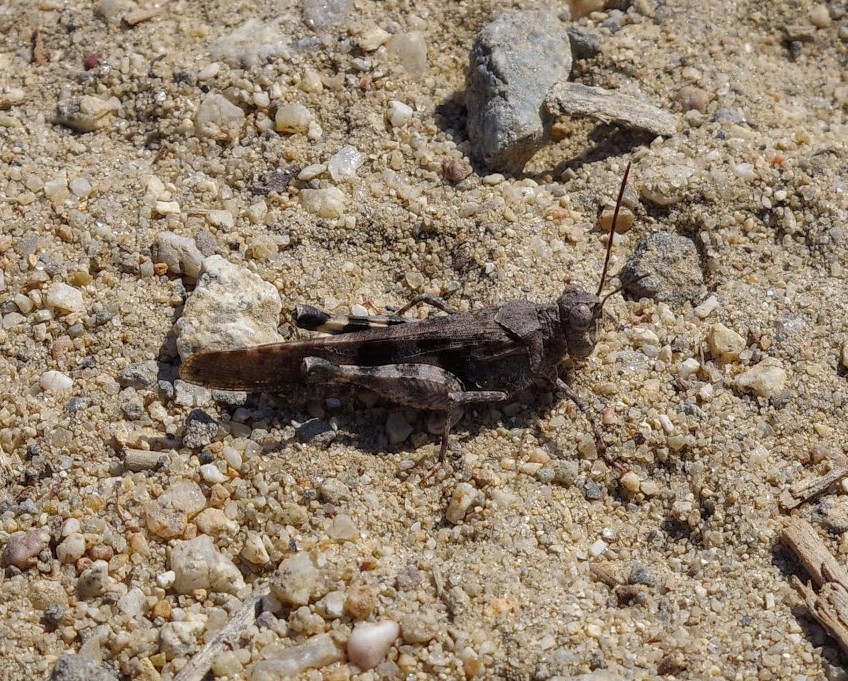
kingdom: Animalia
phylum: Arthropoda
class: Insecta
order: Orthoptera
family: Acrididae
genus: Trimerotropis
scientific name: Trimerotropis fontana
